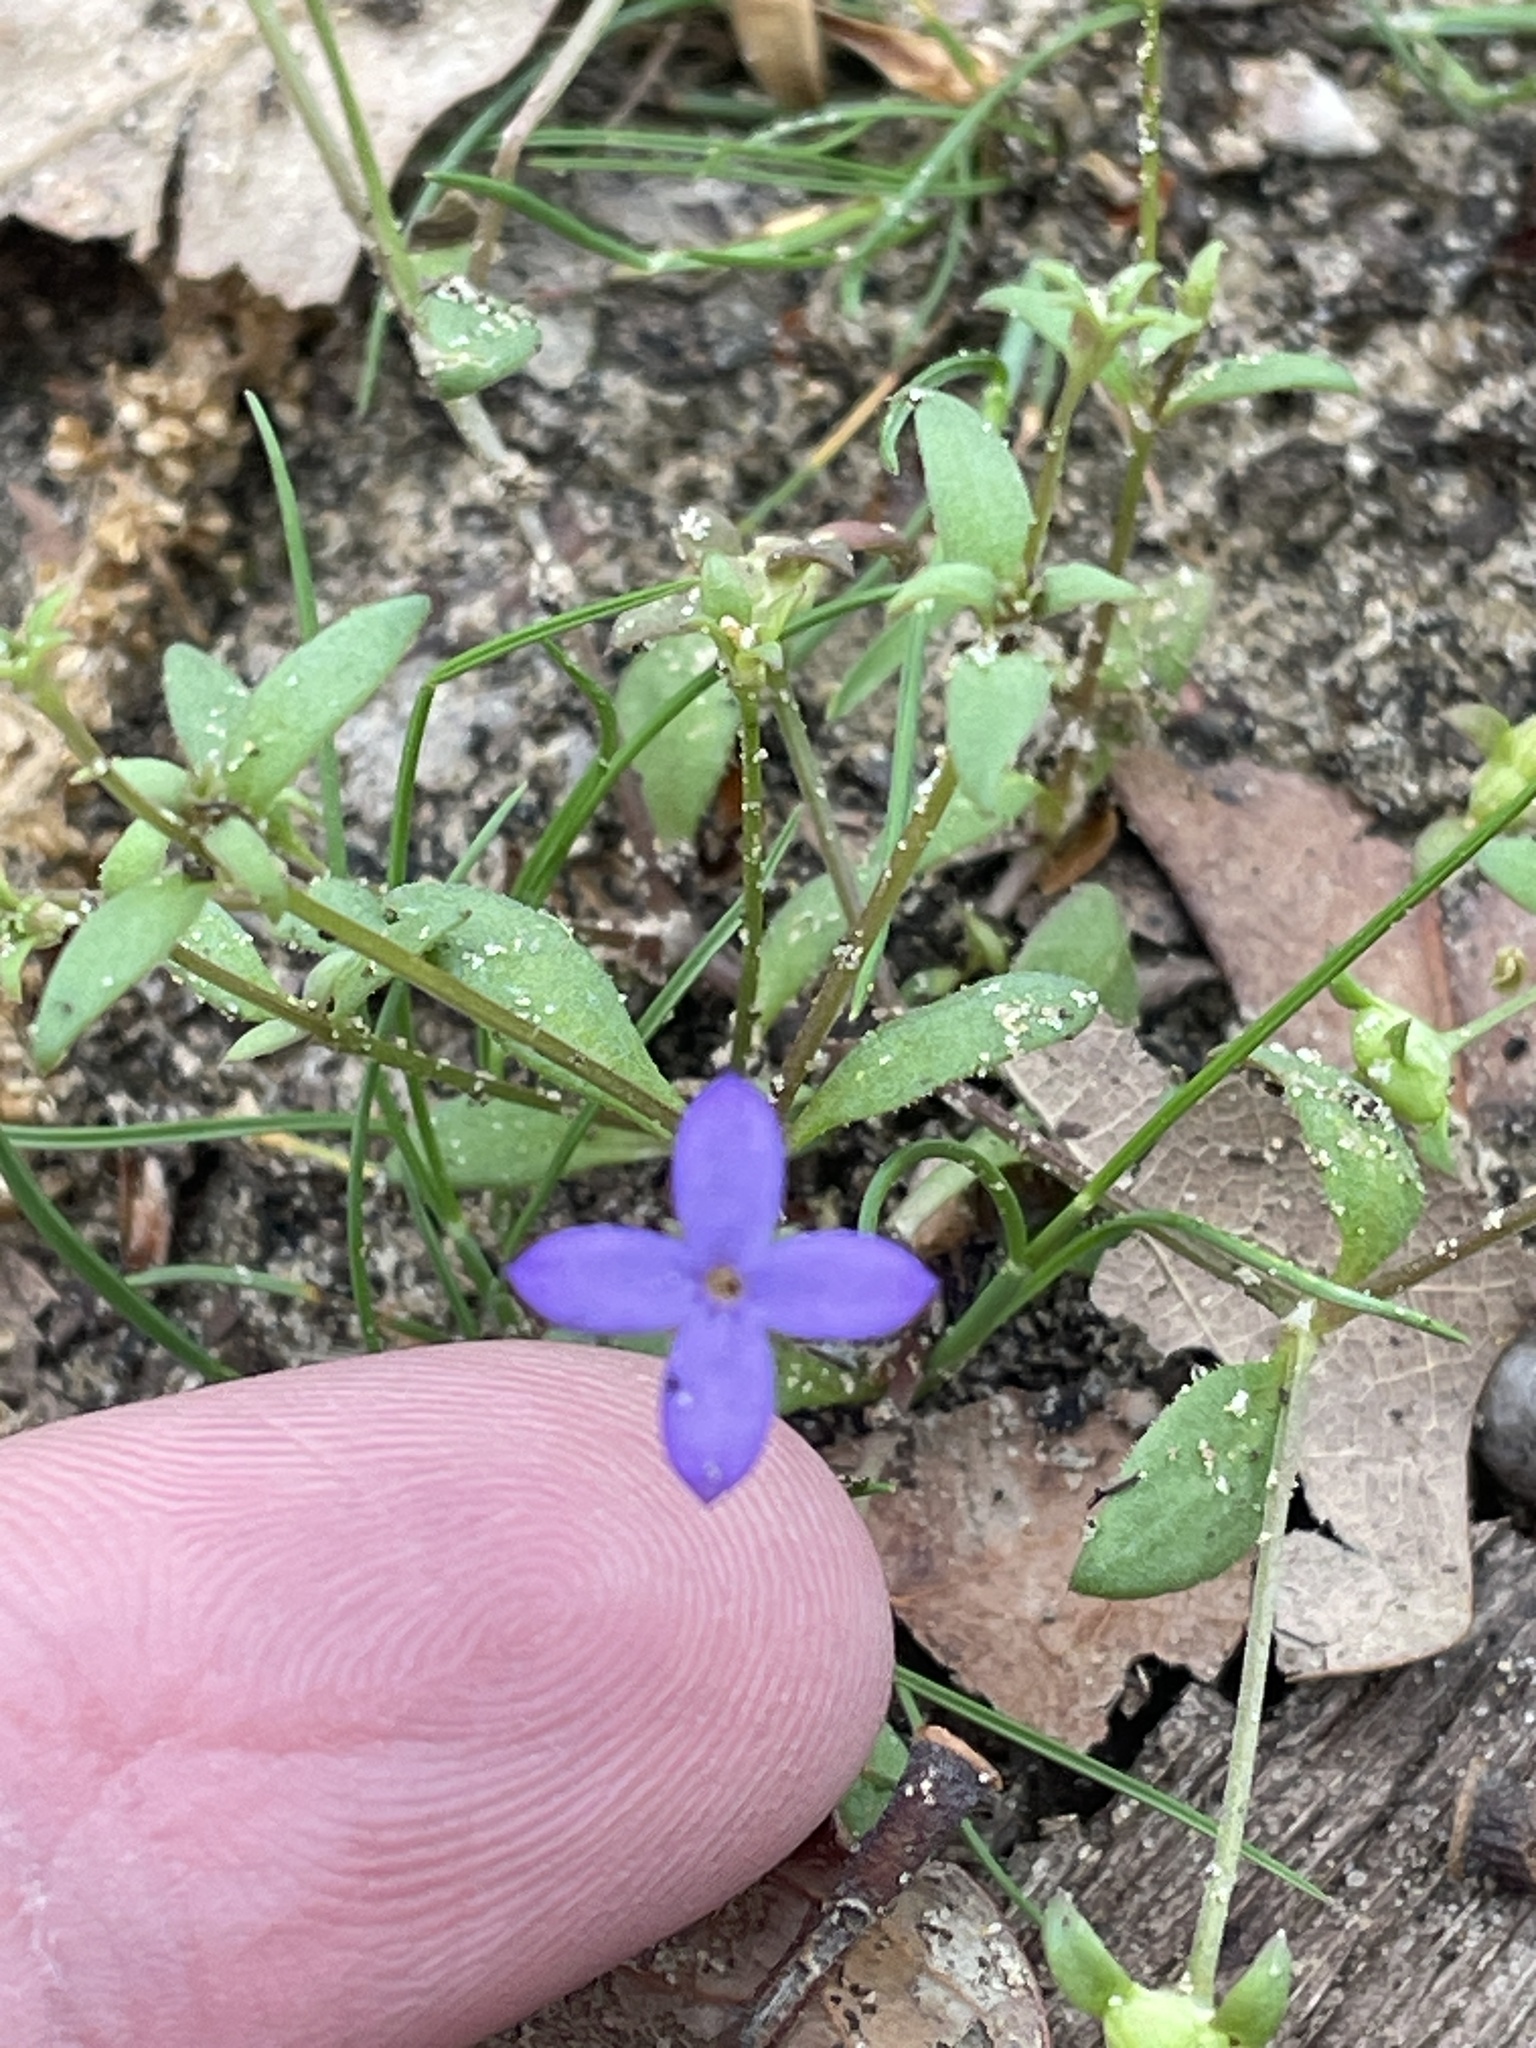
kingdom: Plantae
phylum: Tracheophyta
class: Magnoliopsida
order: Gentianales
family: Rubiaceae
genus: Houstonia
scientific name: Houstonia pusilla
